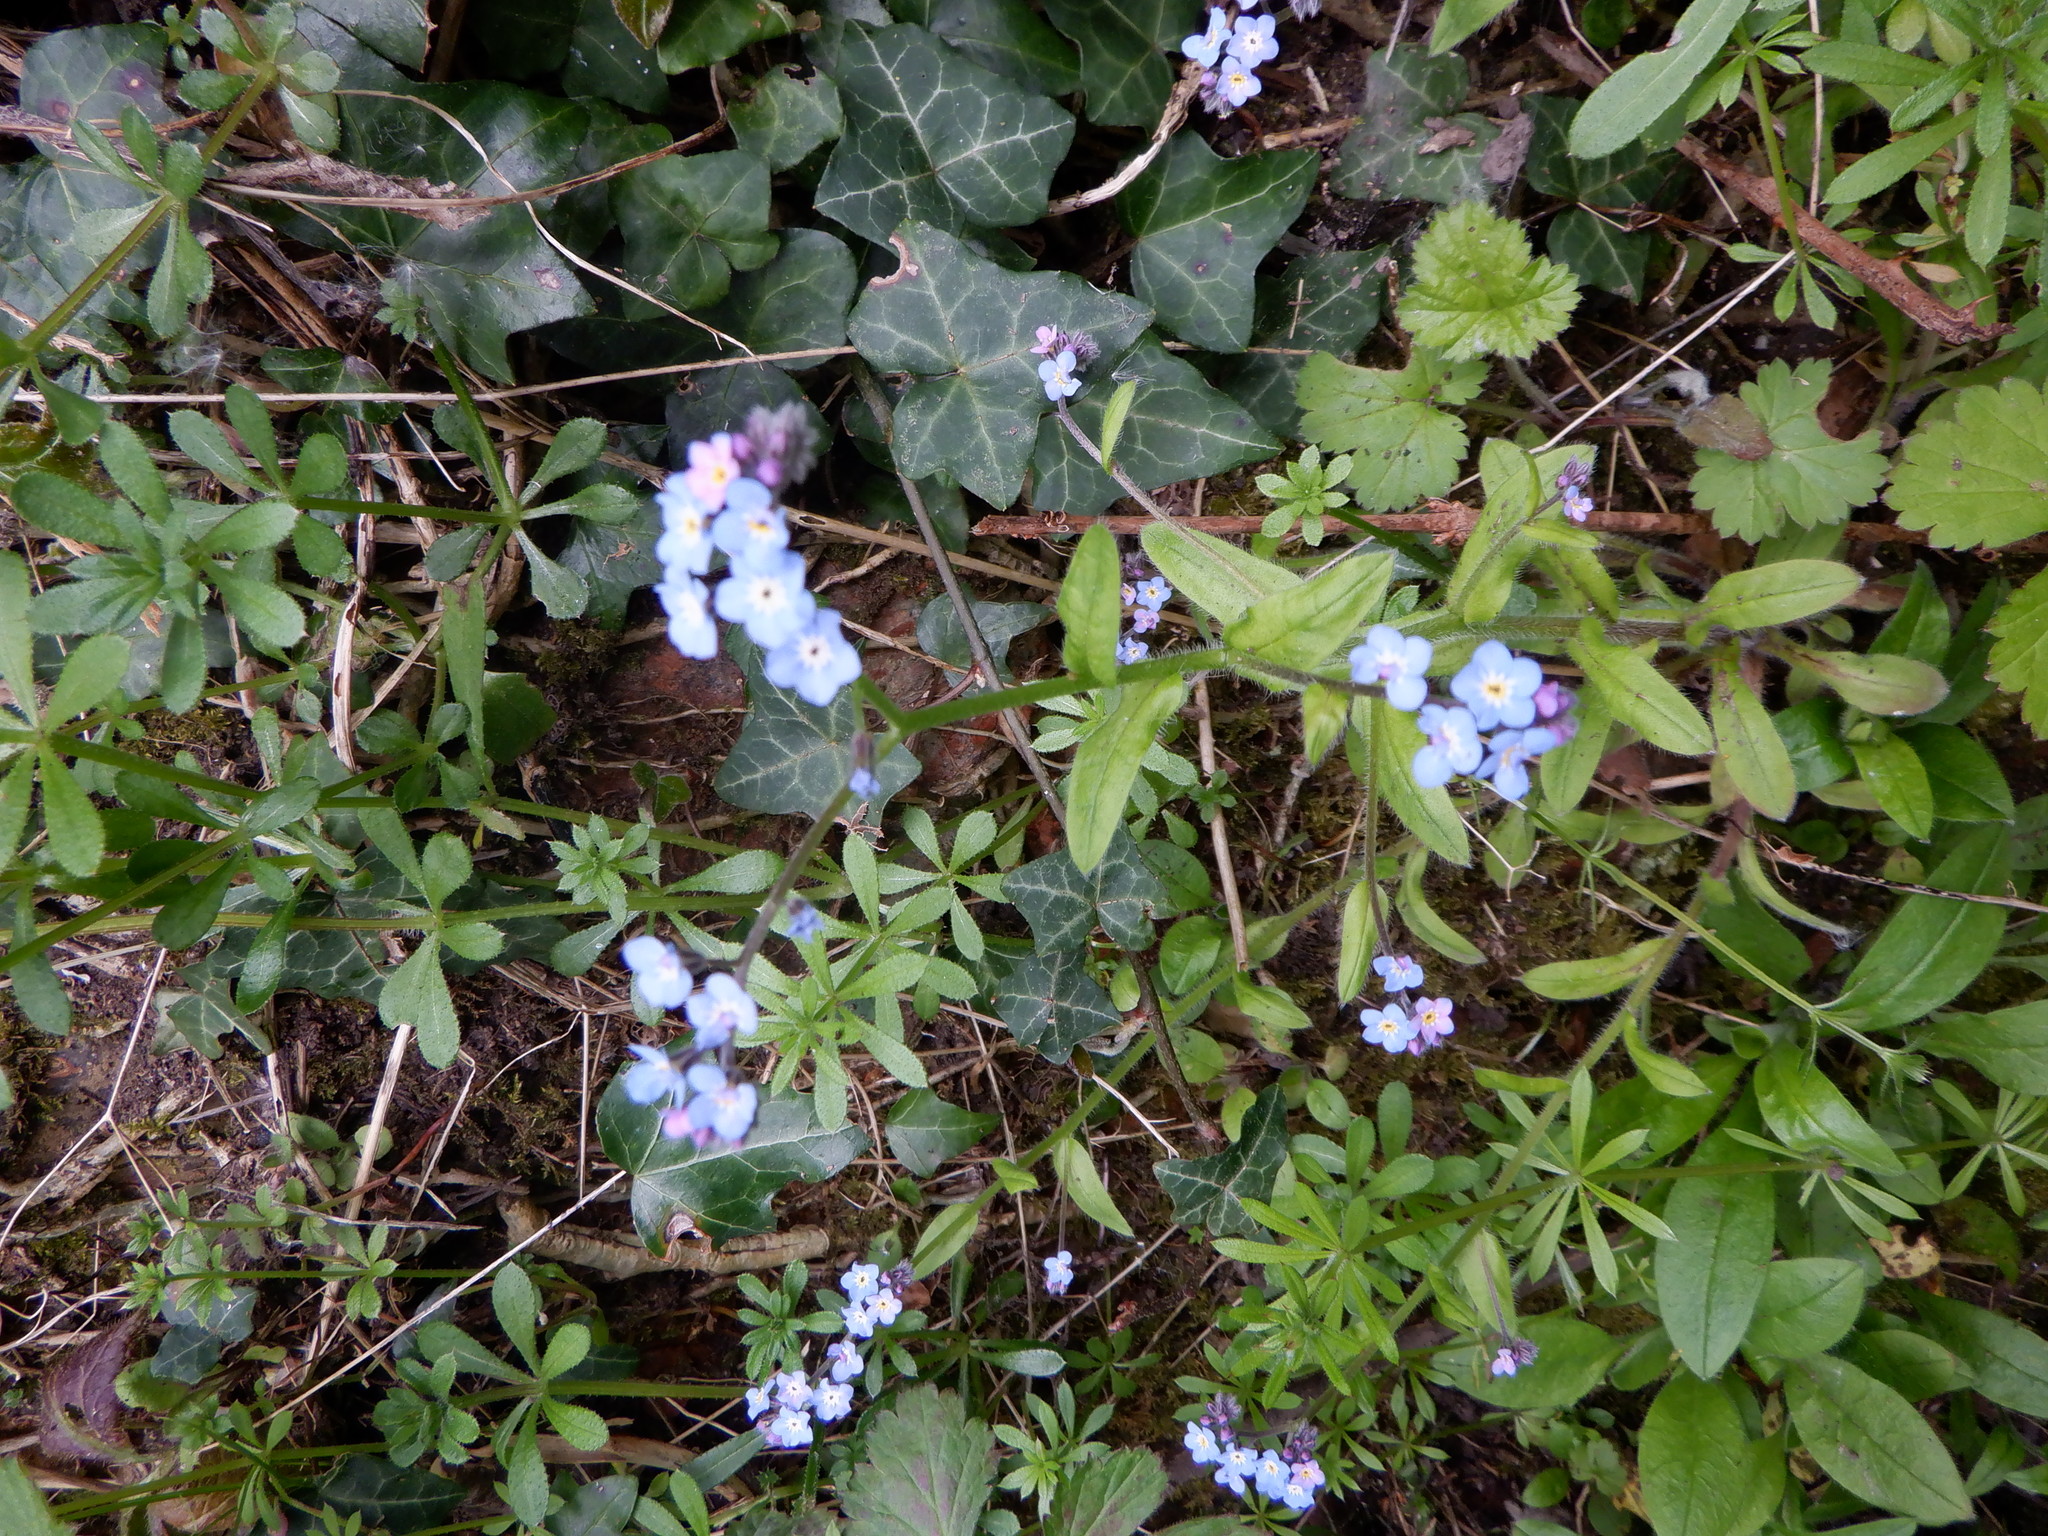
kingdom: Plantae
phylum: Tracheophyta
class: Magnoliopsida
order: Boraginales
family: Boraginaceae
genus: Myosotis
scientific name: Myosotis sylvatica
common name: Wood forget-me-not
